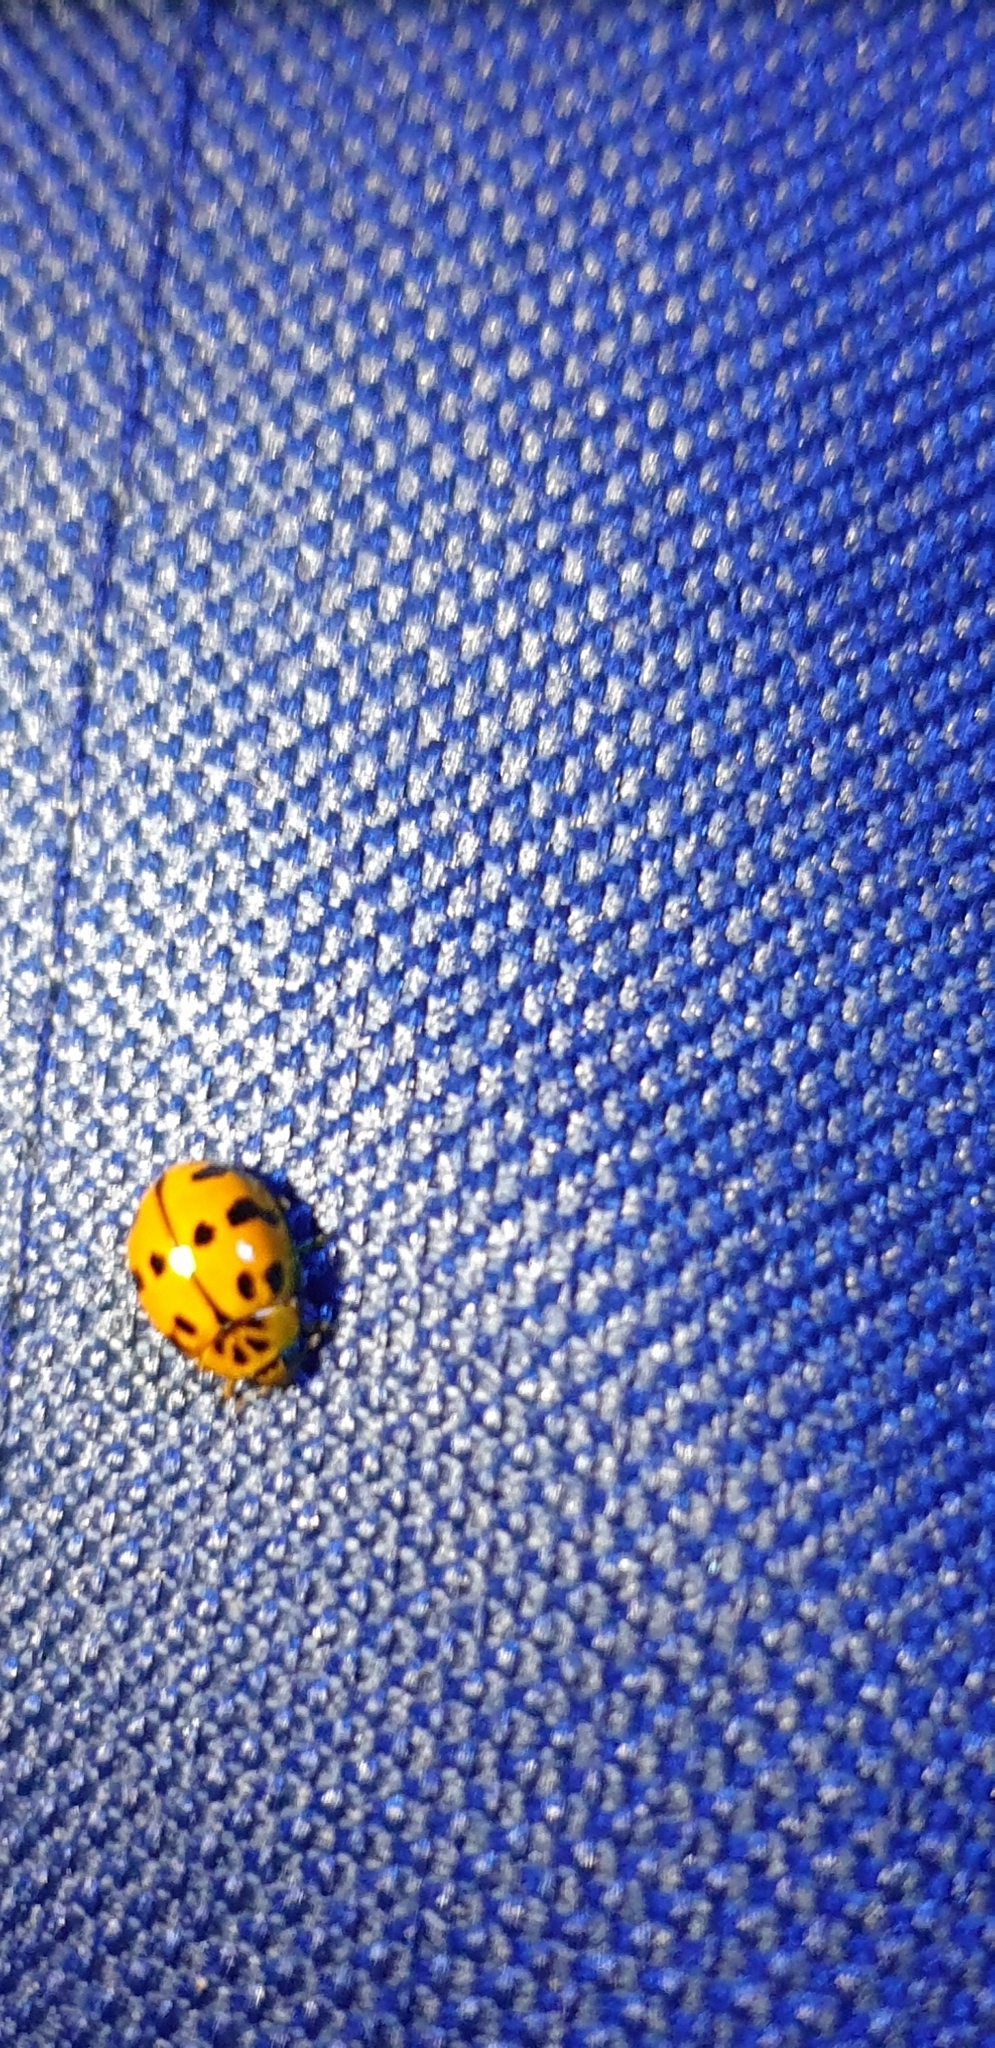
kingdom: Animalia
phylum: Arthropoda
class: Insecta
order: Coleoptera
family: Coccinellidae
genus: Harmonia
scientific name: Harmonia octomaculata
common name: Lady beetle
